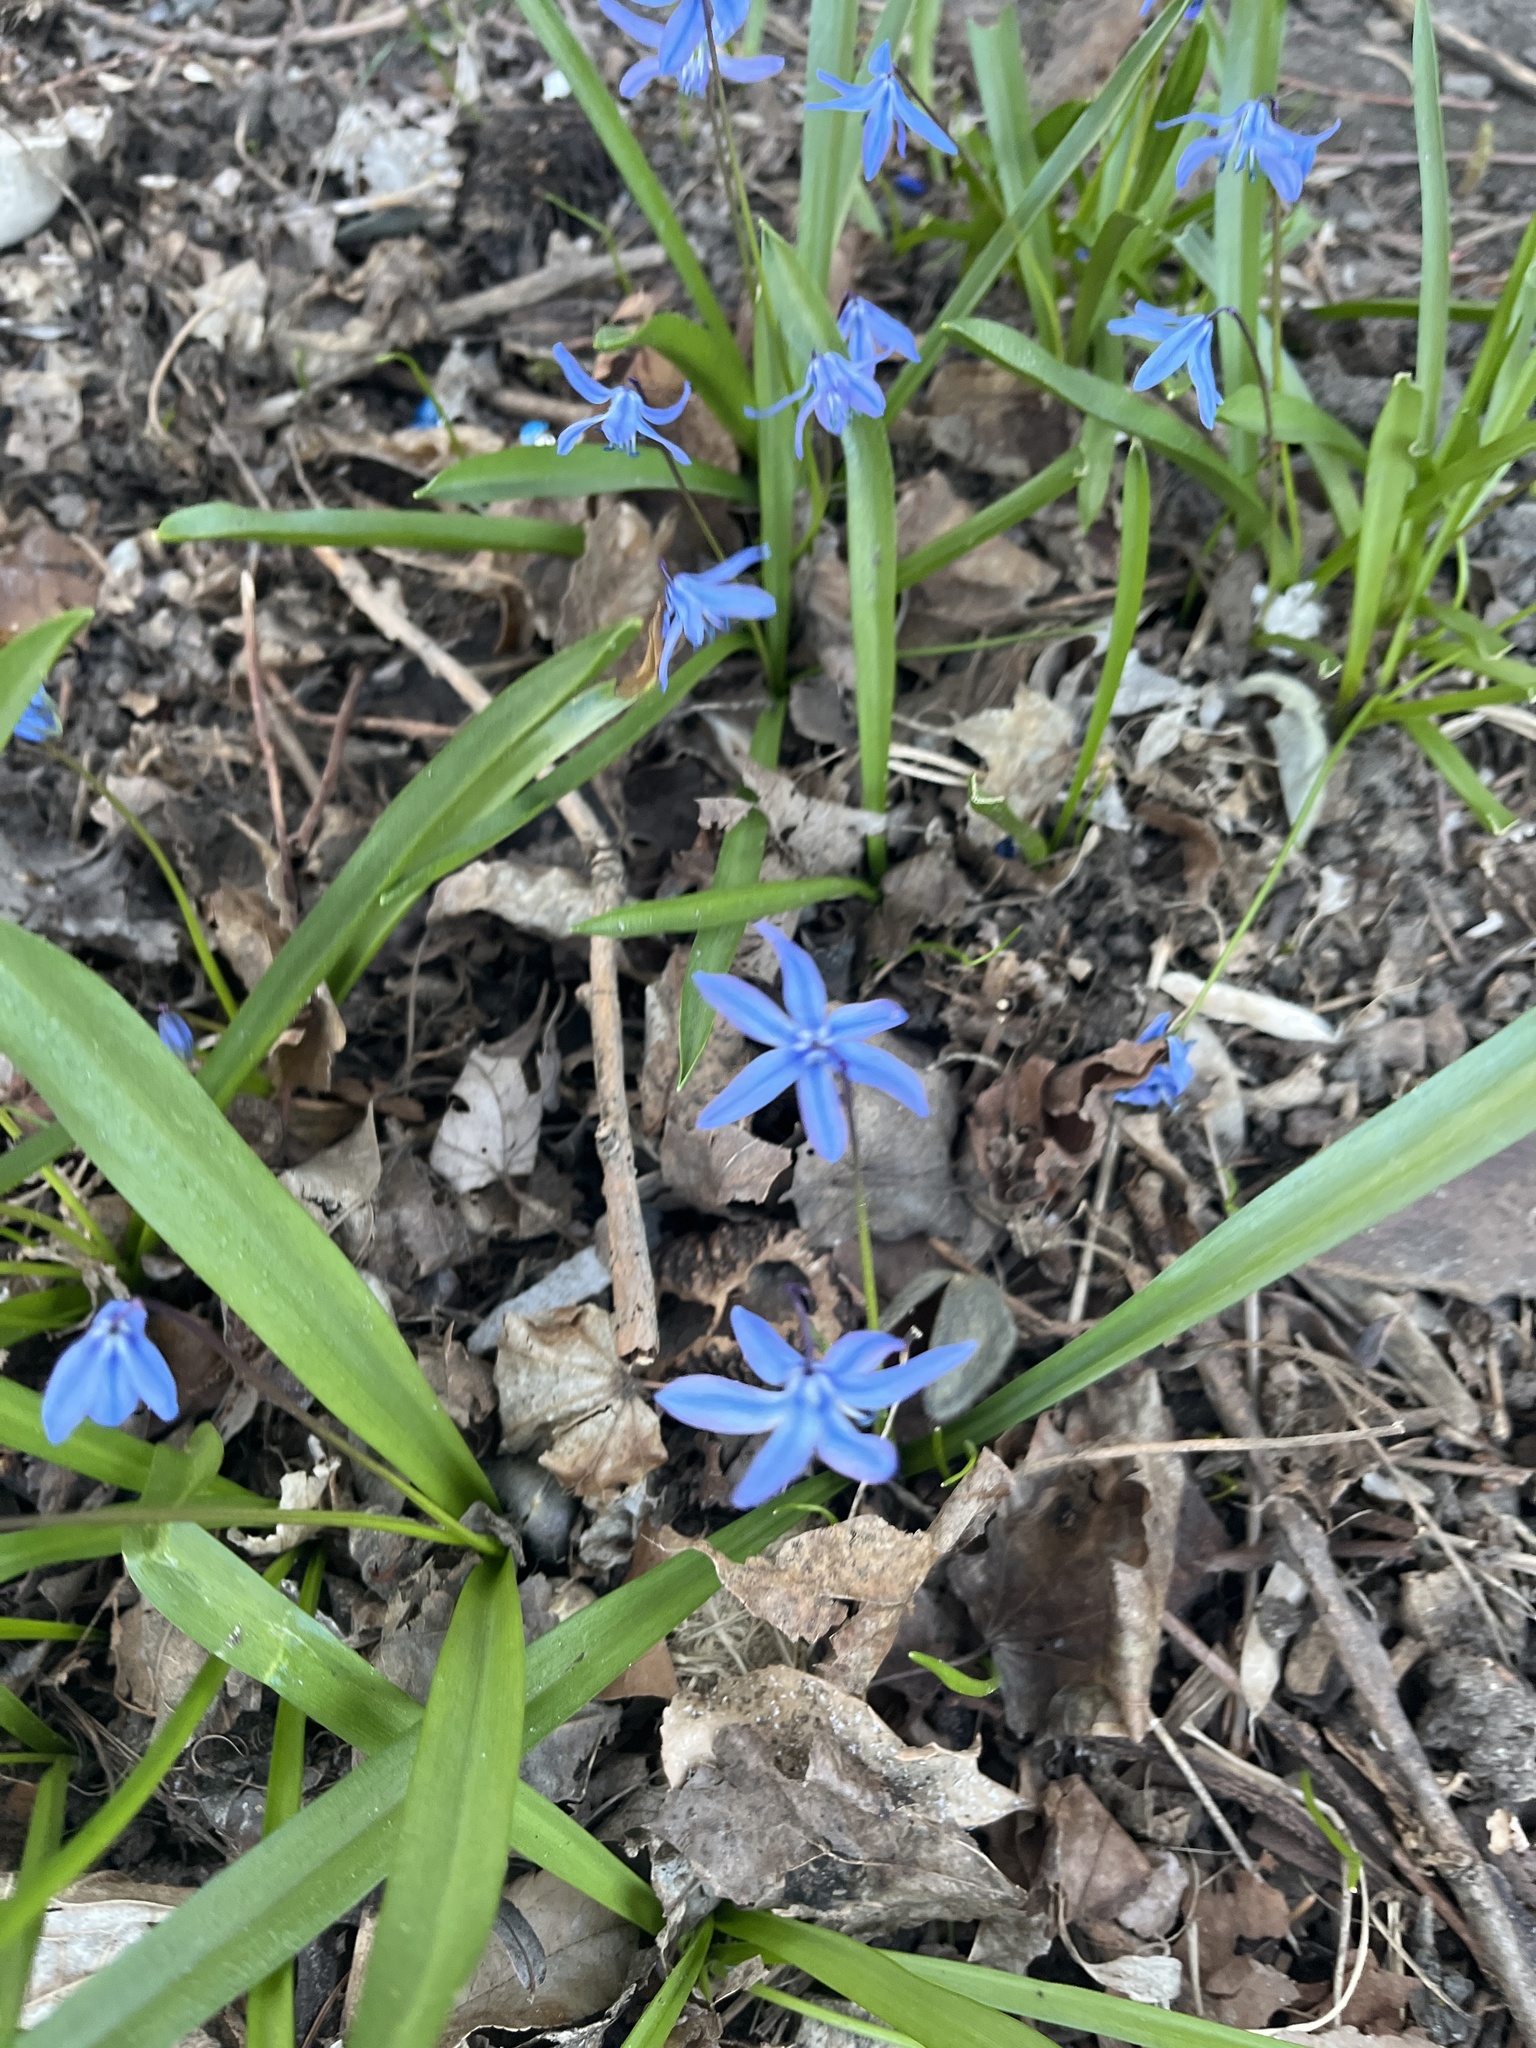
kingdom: Plantae
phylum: Tracheophyta
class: Liliopsida
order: Asparagales
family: Asparagaceae
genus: Scilla
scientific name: Scilla siberica
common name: Siberian squill
